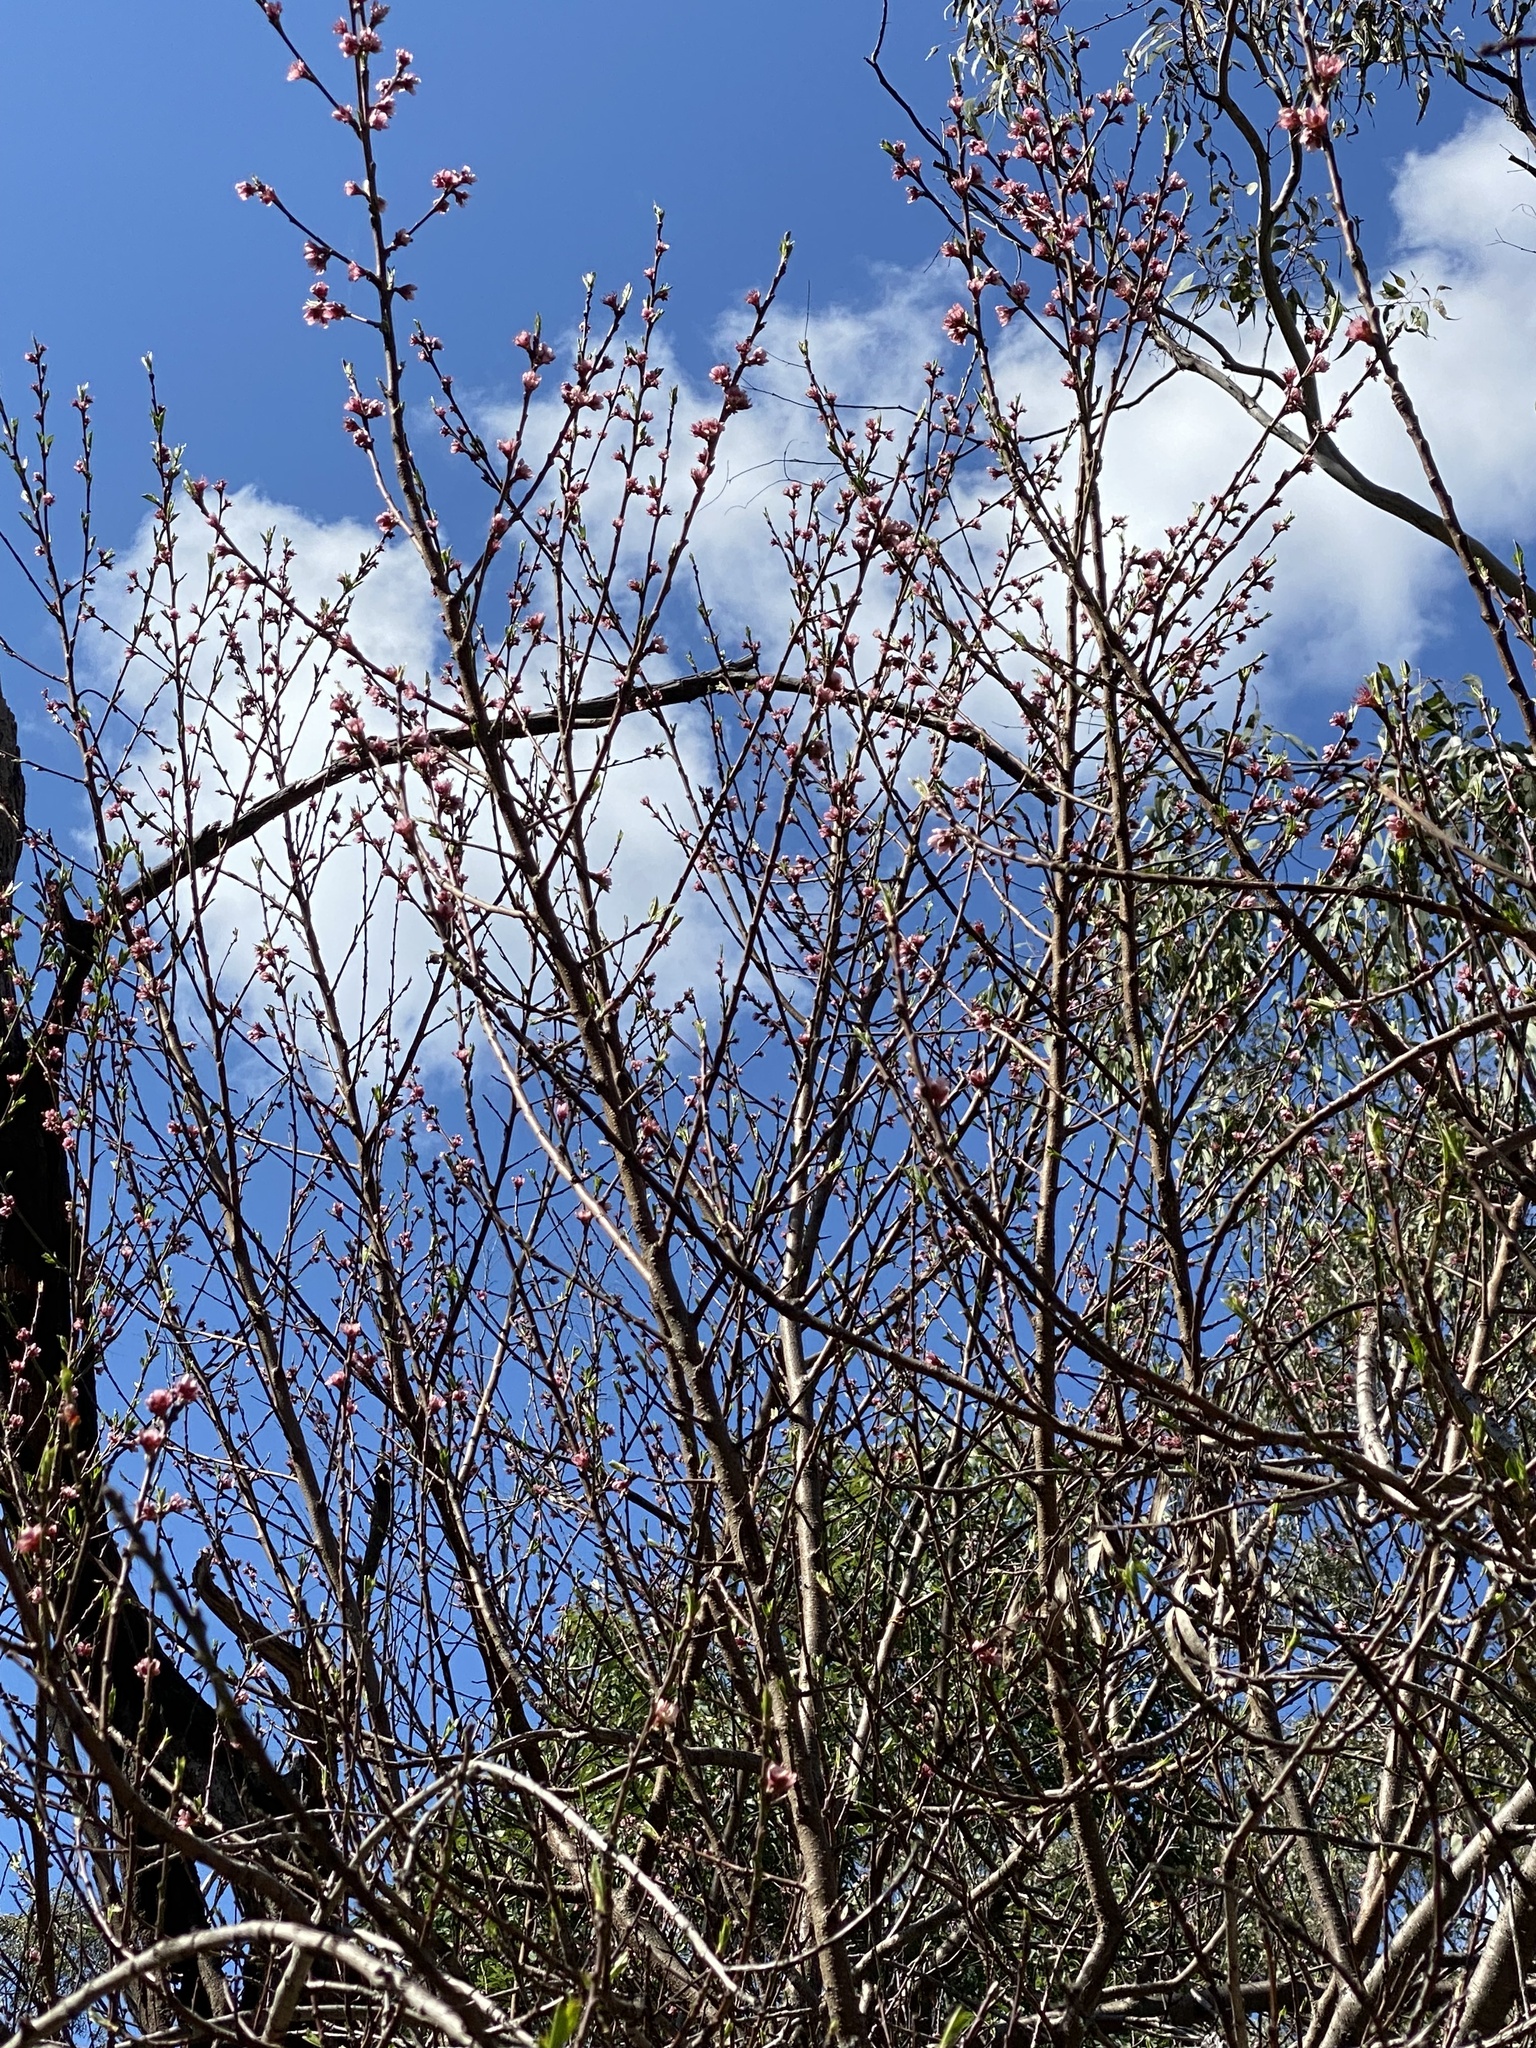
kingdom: Plantae
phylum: Tracheophyta
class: Magnoliopsida
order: Rosales
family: Rosaceae
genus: Prunus
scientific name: Prunus persica
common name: Peach
